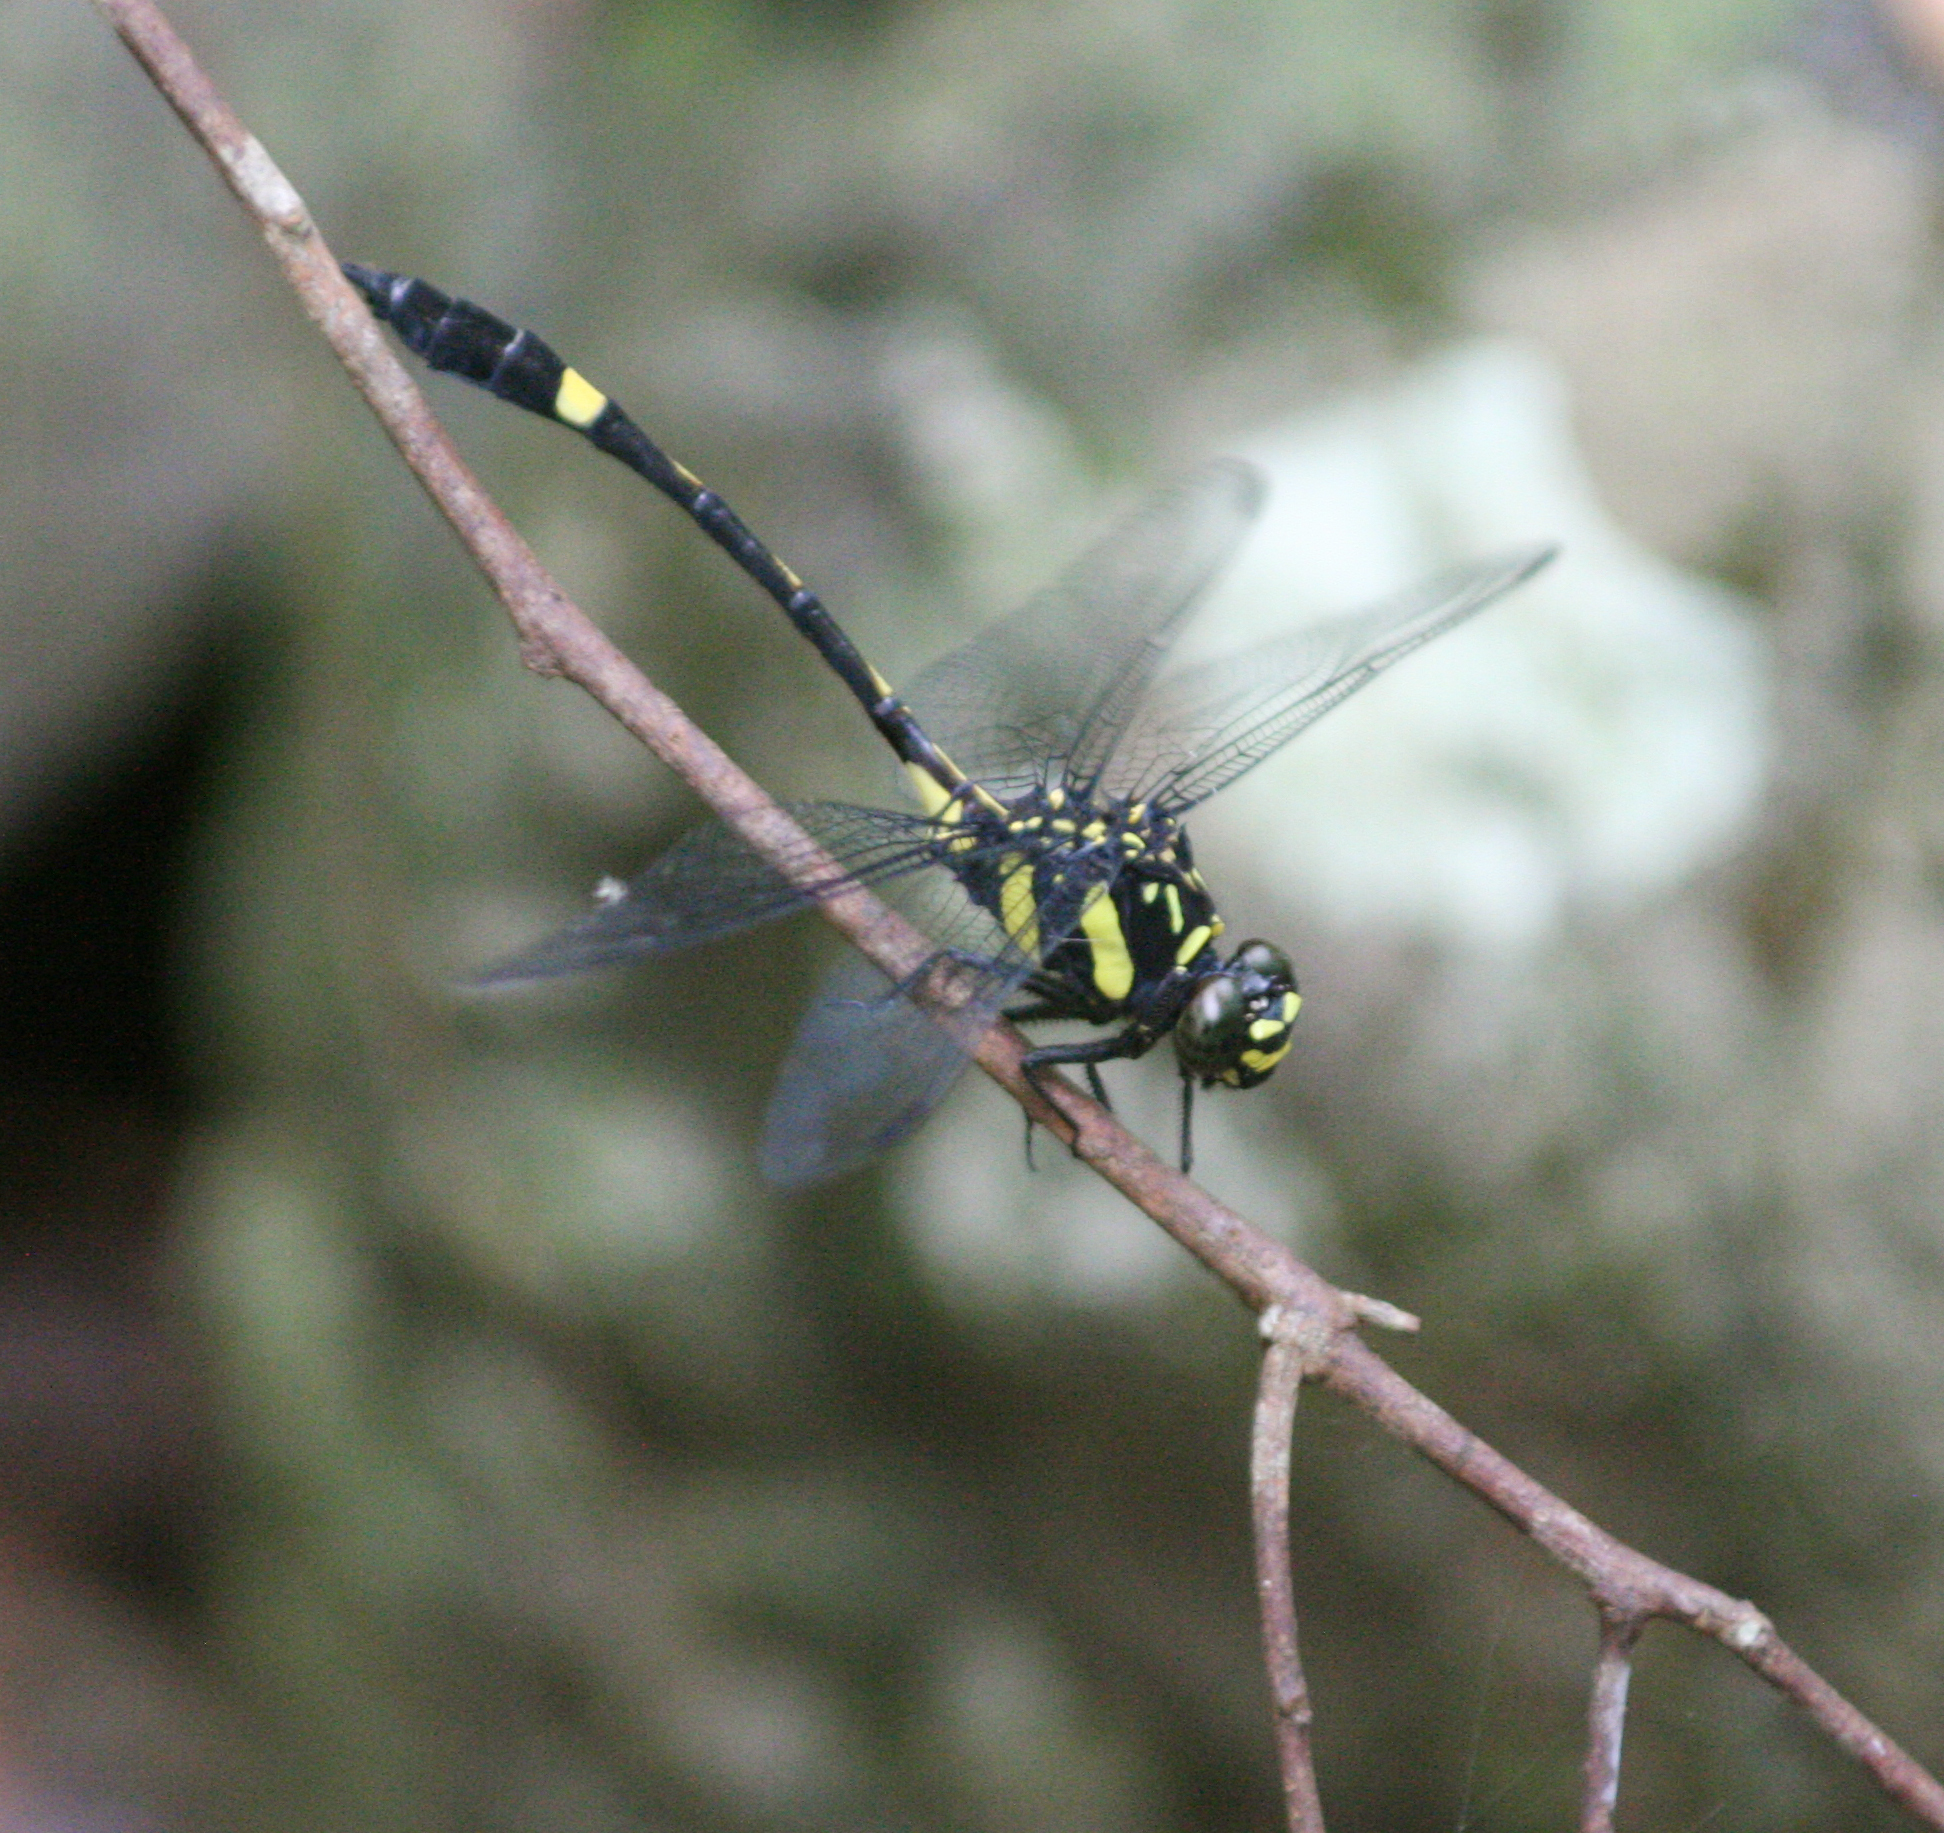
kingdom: Animalia
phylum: Arthropoda
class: Insecta
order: Odonata
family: Gomphidae
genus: Gomphidictinus
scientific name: Gomphidictinus perakensis
